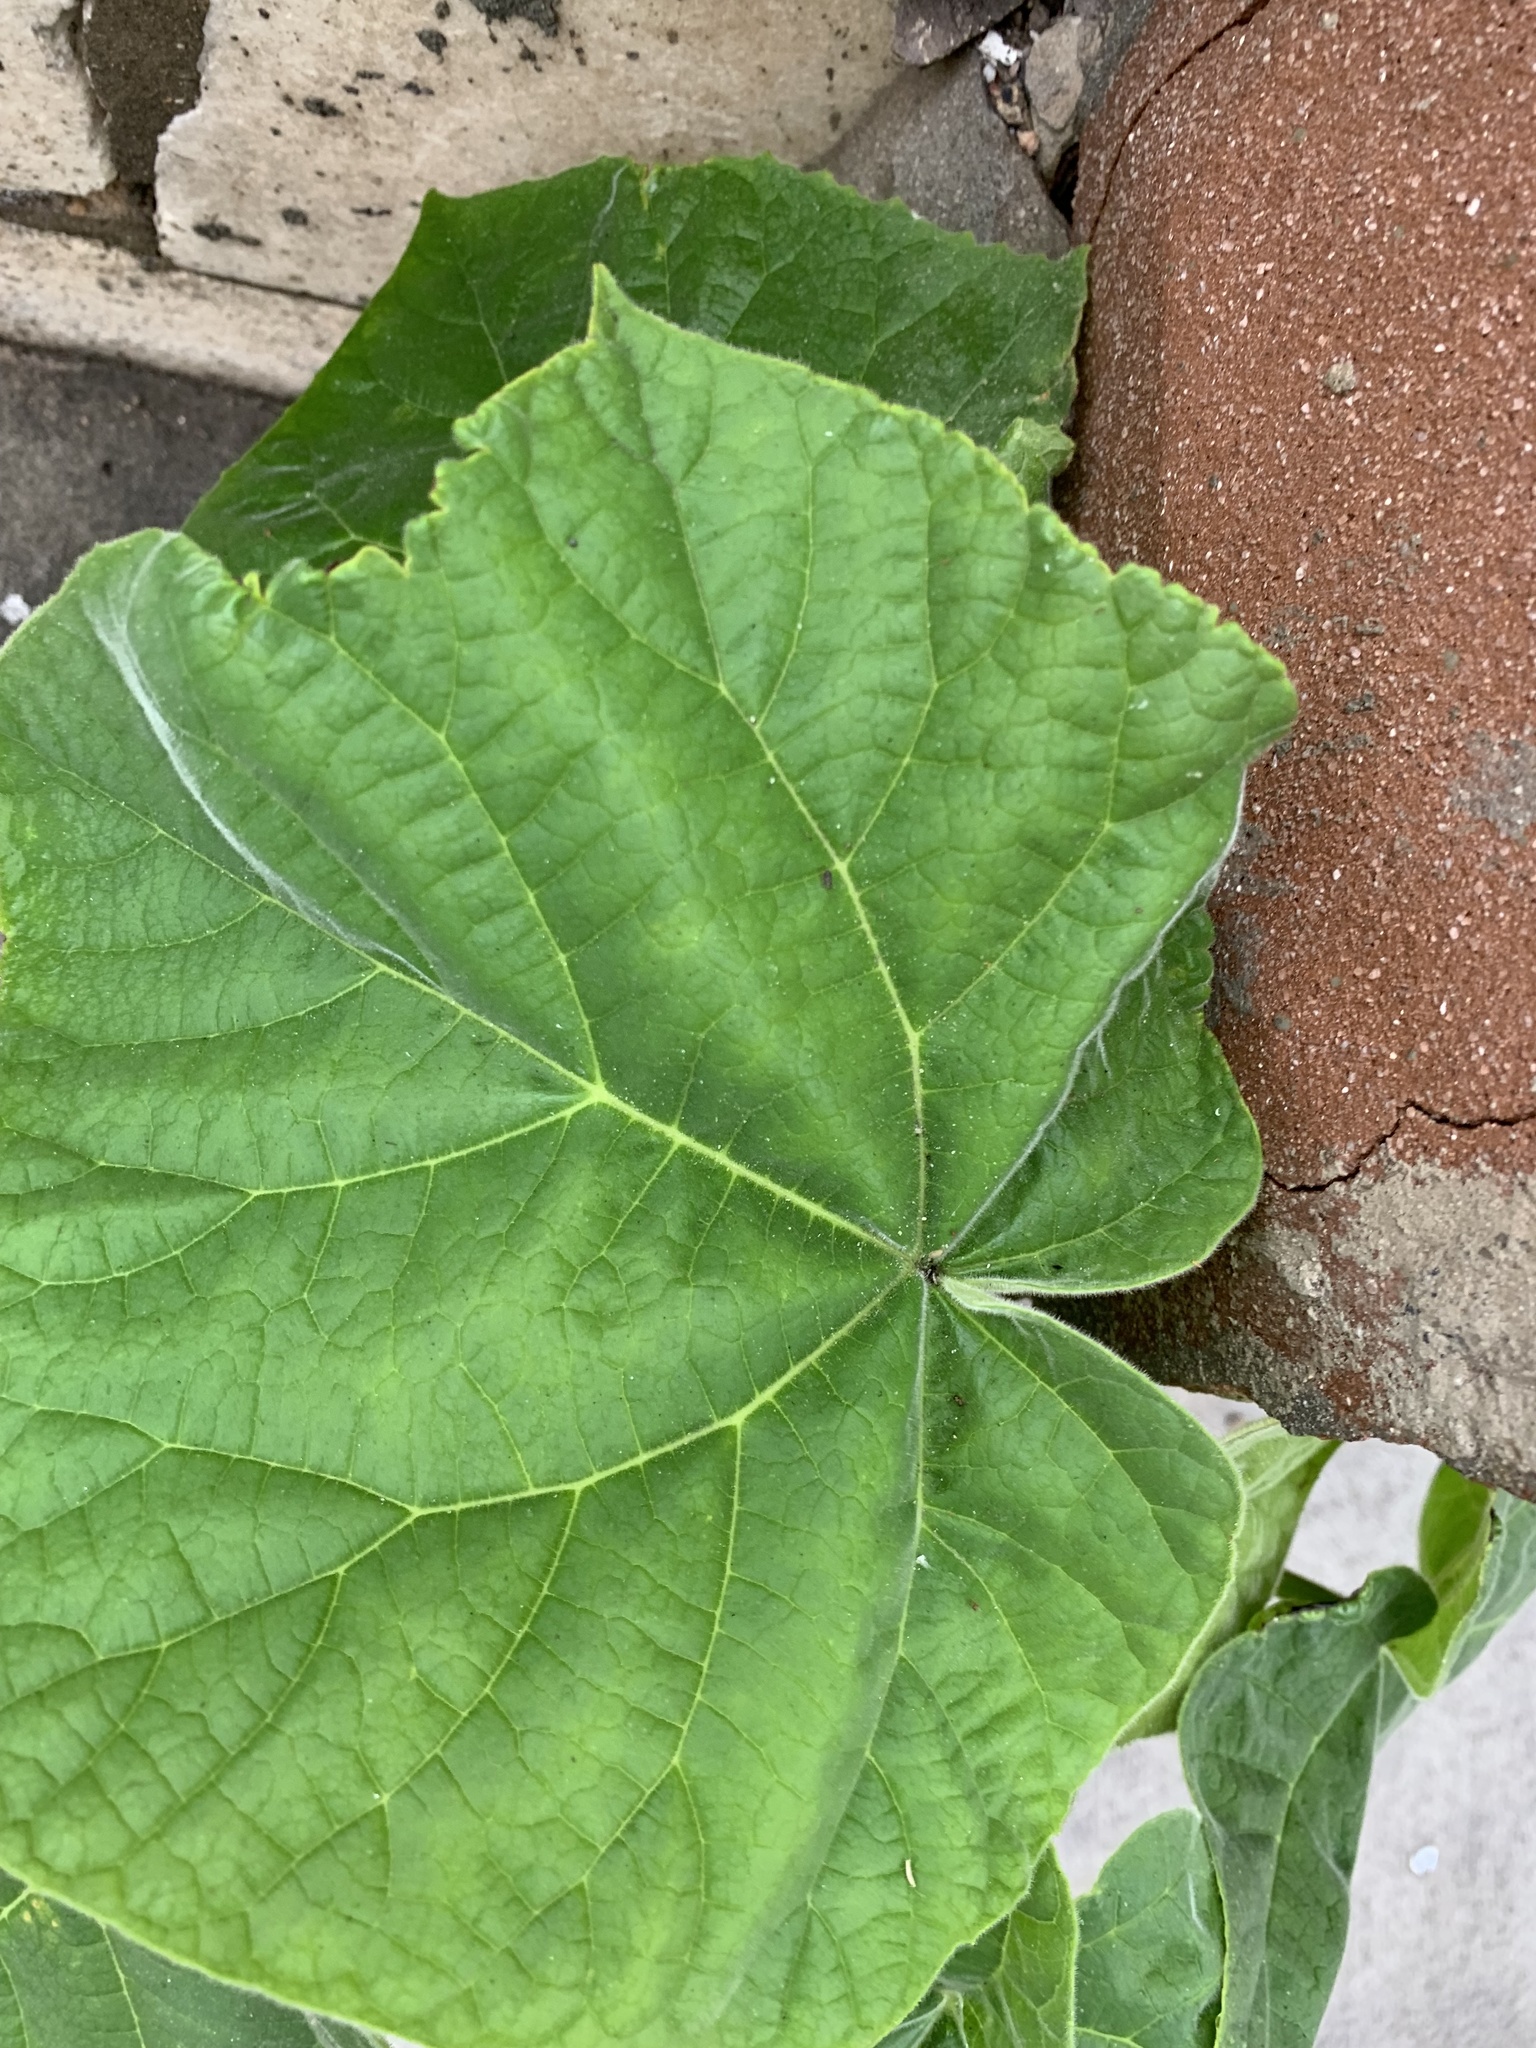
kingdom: Plantae
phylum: Tracheophyta
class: Magnoliopsida
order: Lamiales
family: Paulowniaceae
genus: Paulownia
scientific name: Paulownia tomentosa
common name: Foxglove-tree
